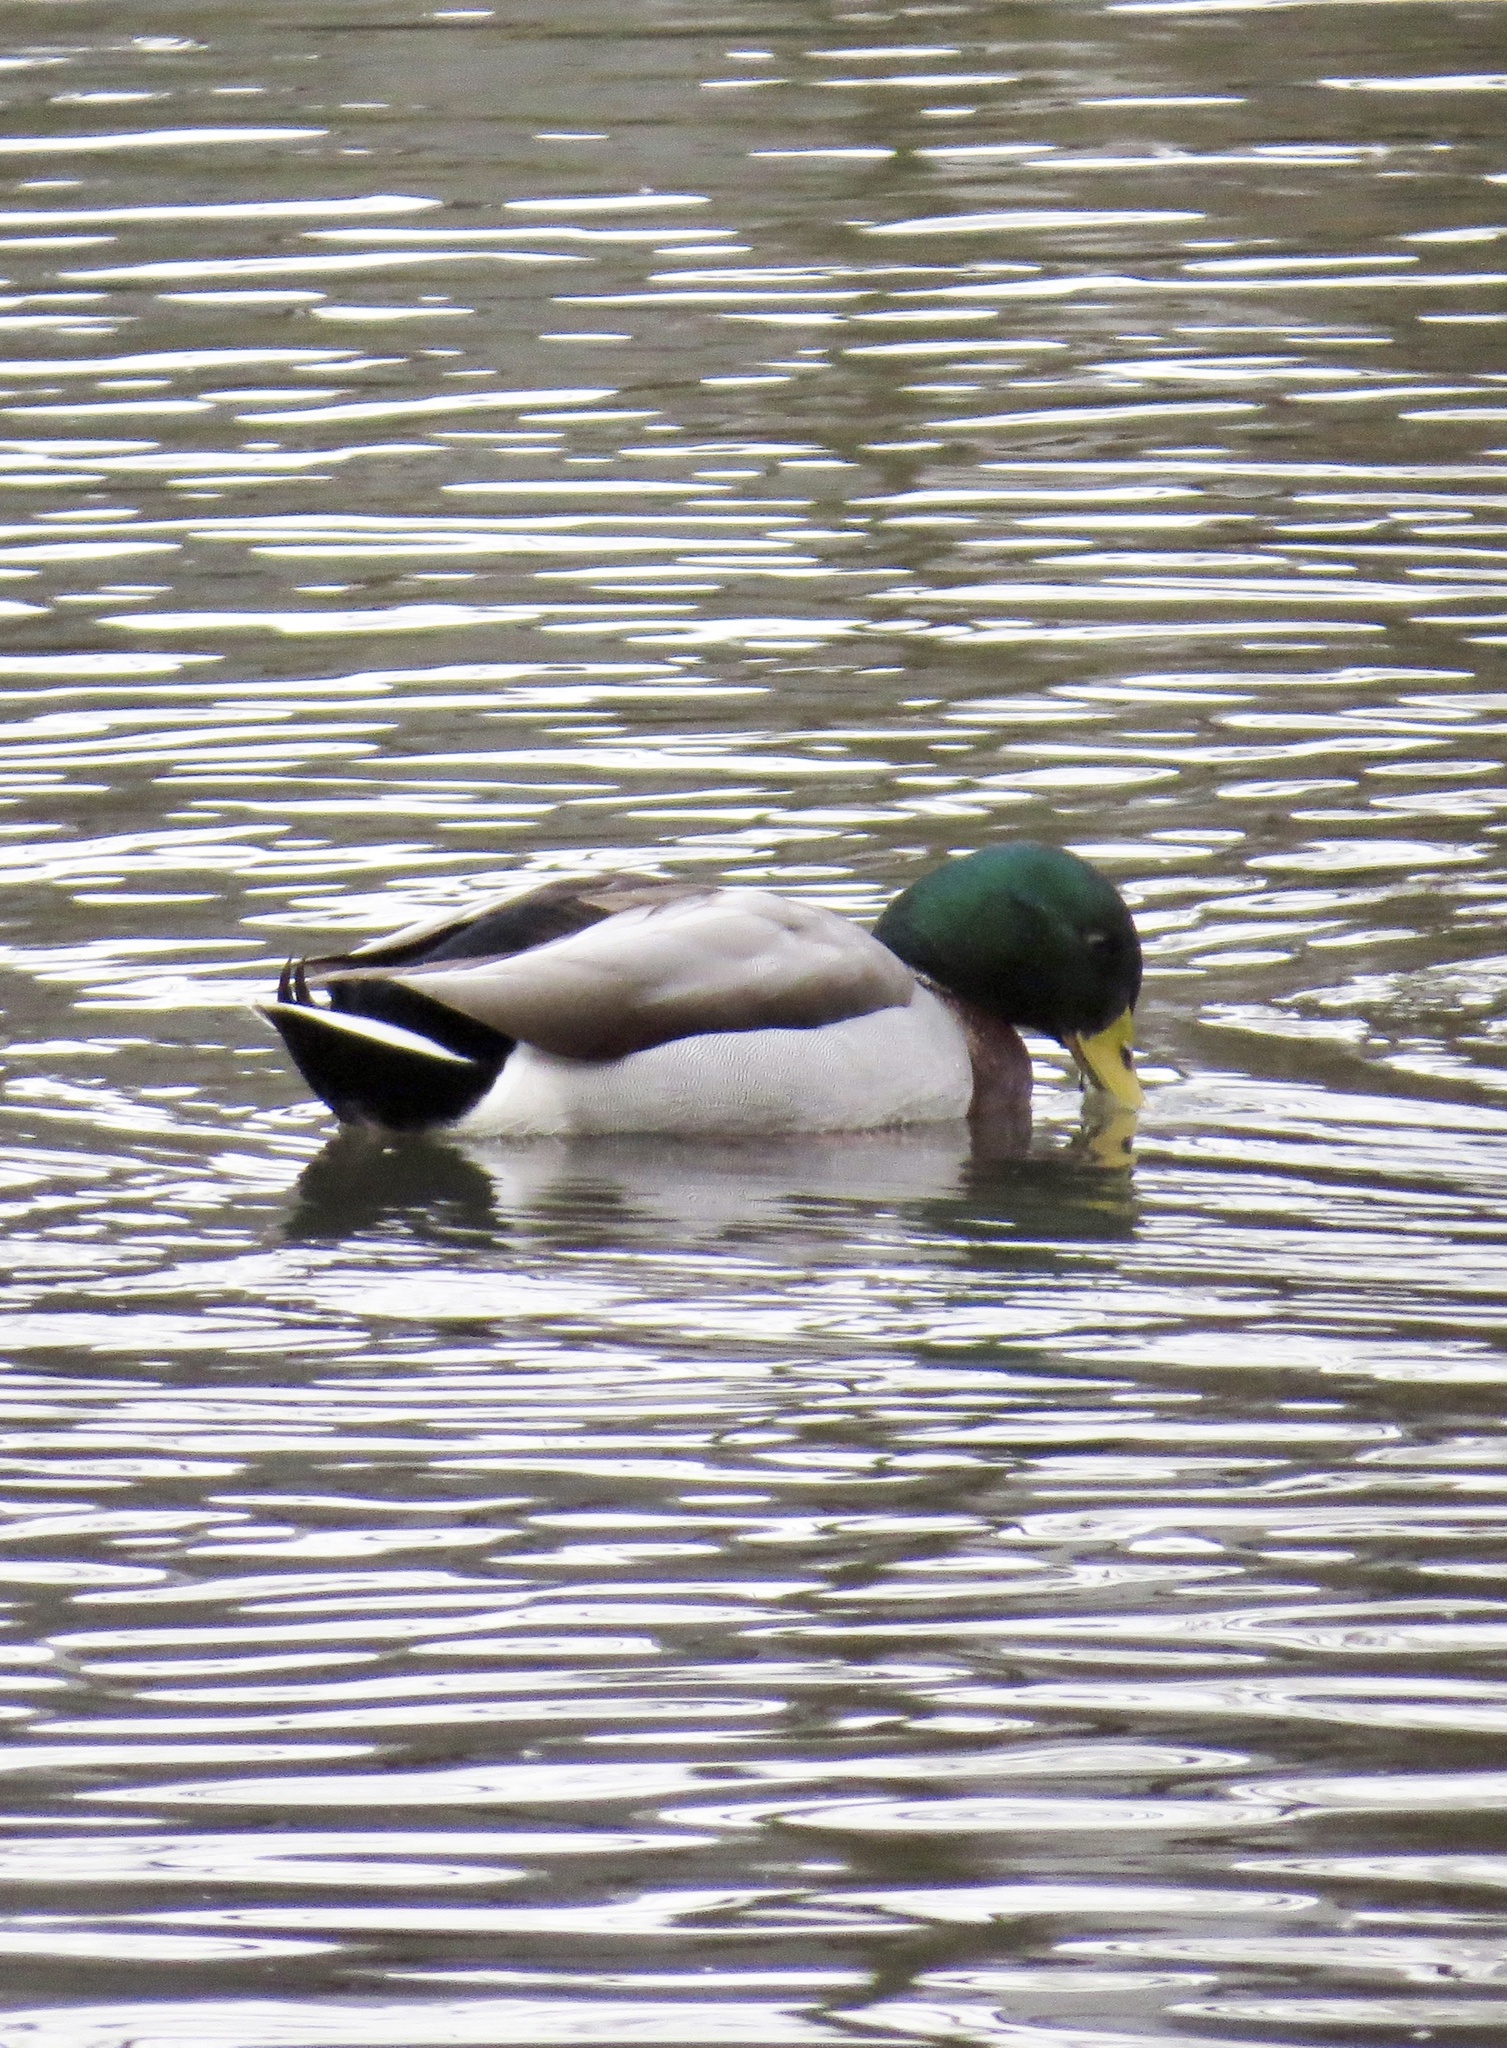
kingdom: Animalia
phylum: Chordata
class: Aves
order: Anseriformes
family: Anatidae
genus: Anas
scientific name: Anas platyrhynchos
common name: Mallard
